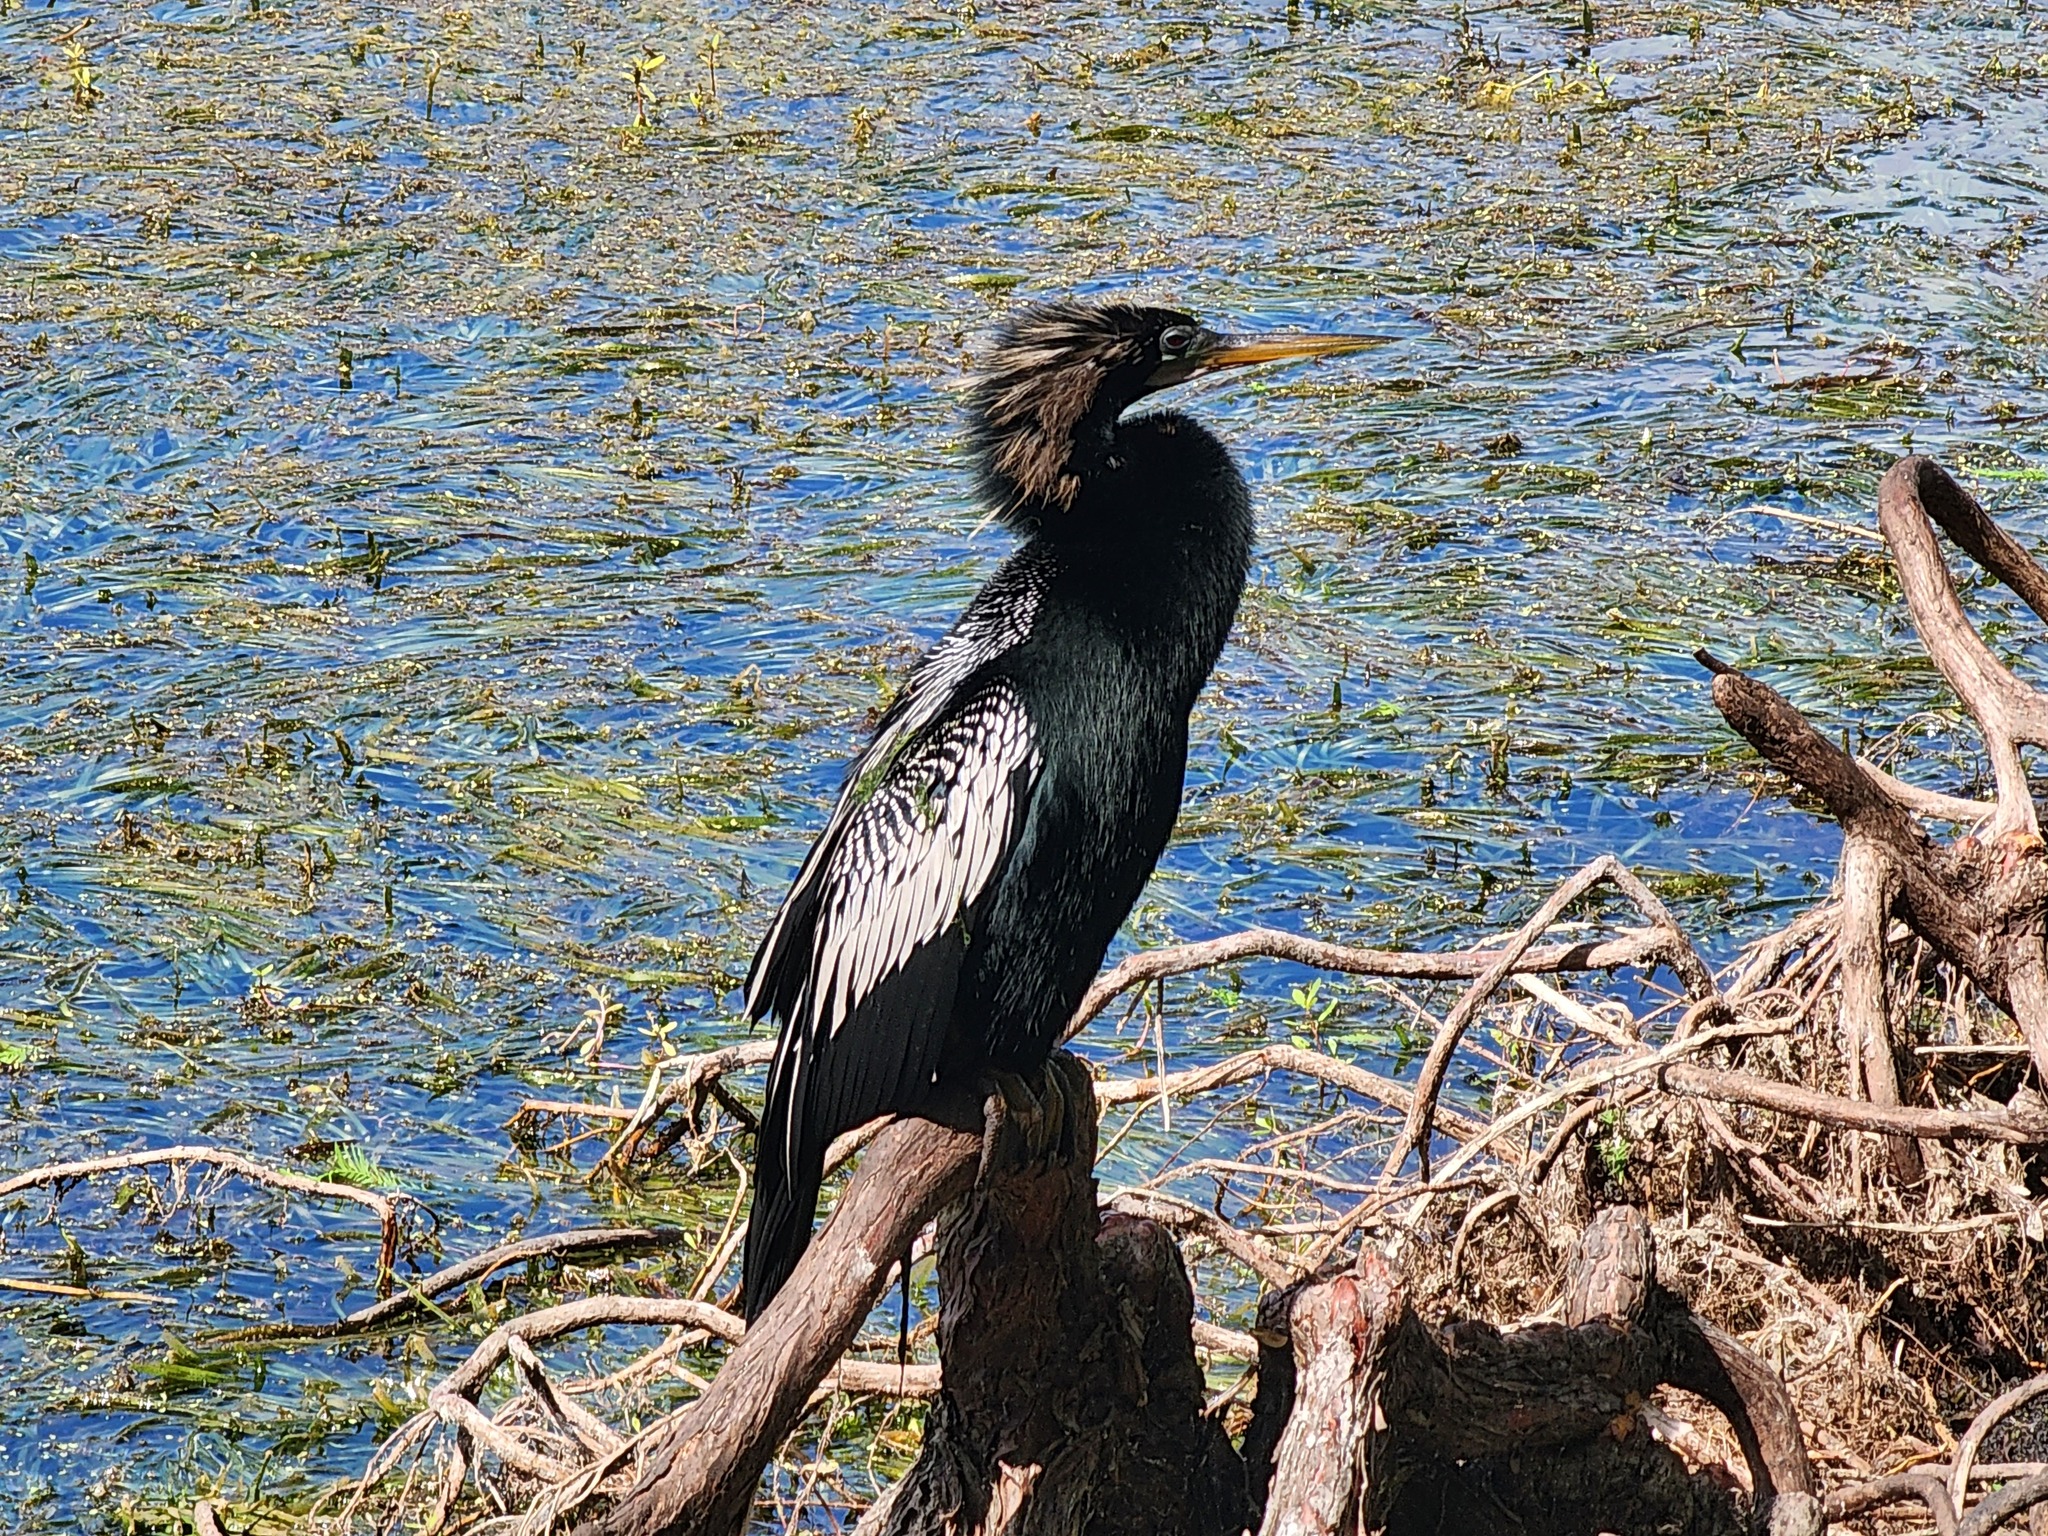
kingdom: Animalia
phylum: Chordata
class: Aves
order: Suliformes
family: Anhingidae
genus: Anhinga
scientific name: Anhinga anhinga
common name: Anhinga
